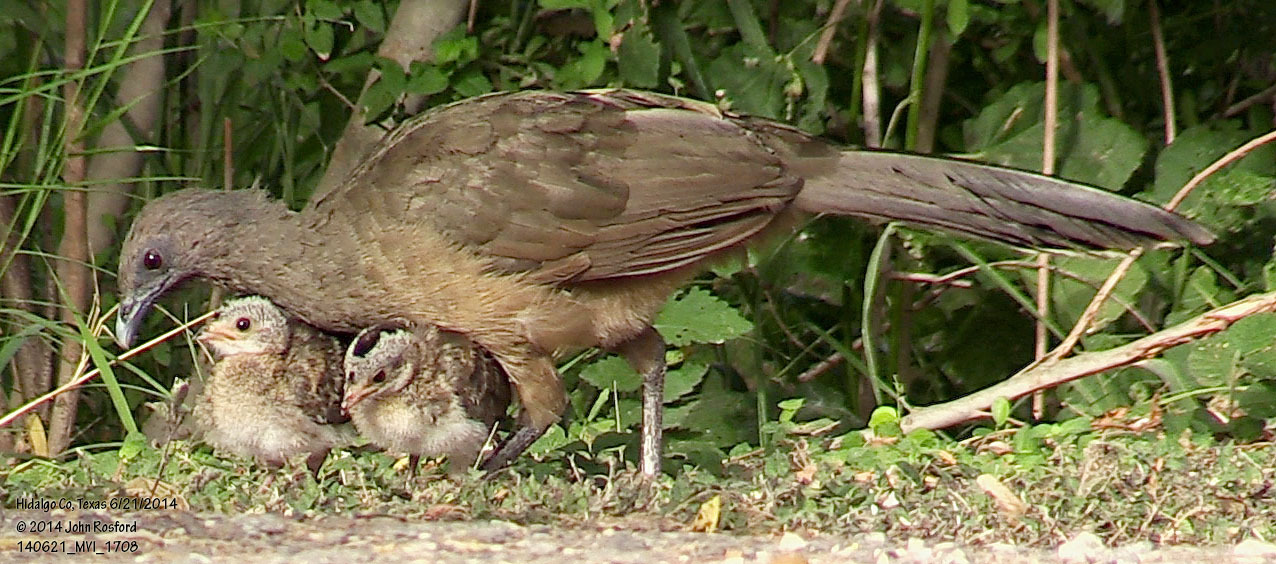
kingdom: Animalia
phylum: Chordata
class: Aves
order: Galliformes
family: Cracidae
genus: Ortalis
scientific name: Ortalis vetula
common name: Plain chachalaca
